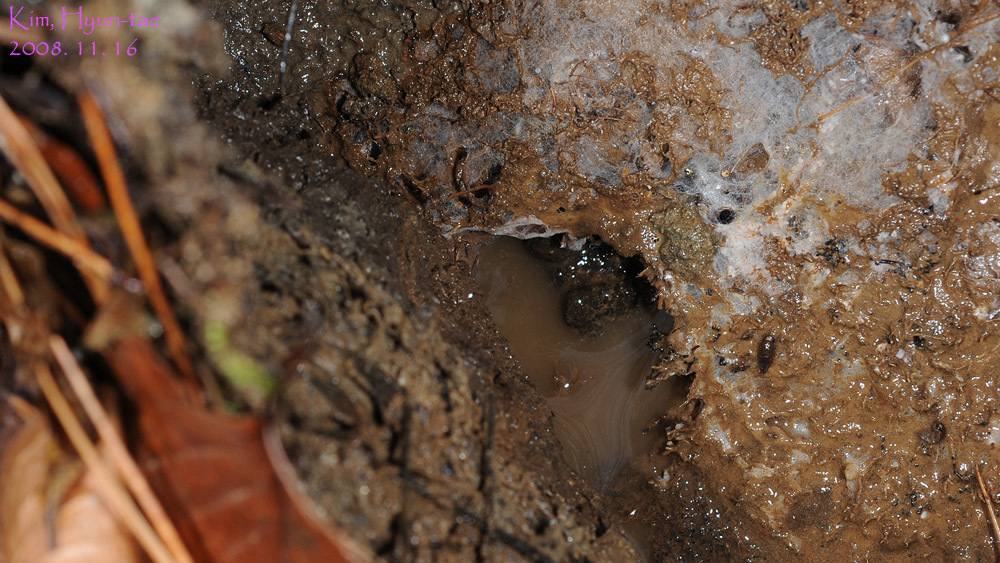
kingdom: Animalia
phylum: Chordata
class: Amphibia
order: Anura
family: Ranidae
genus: Rana
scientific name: Rana uenoi
